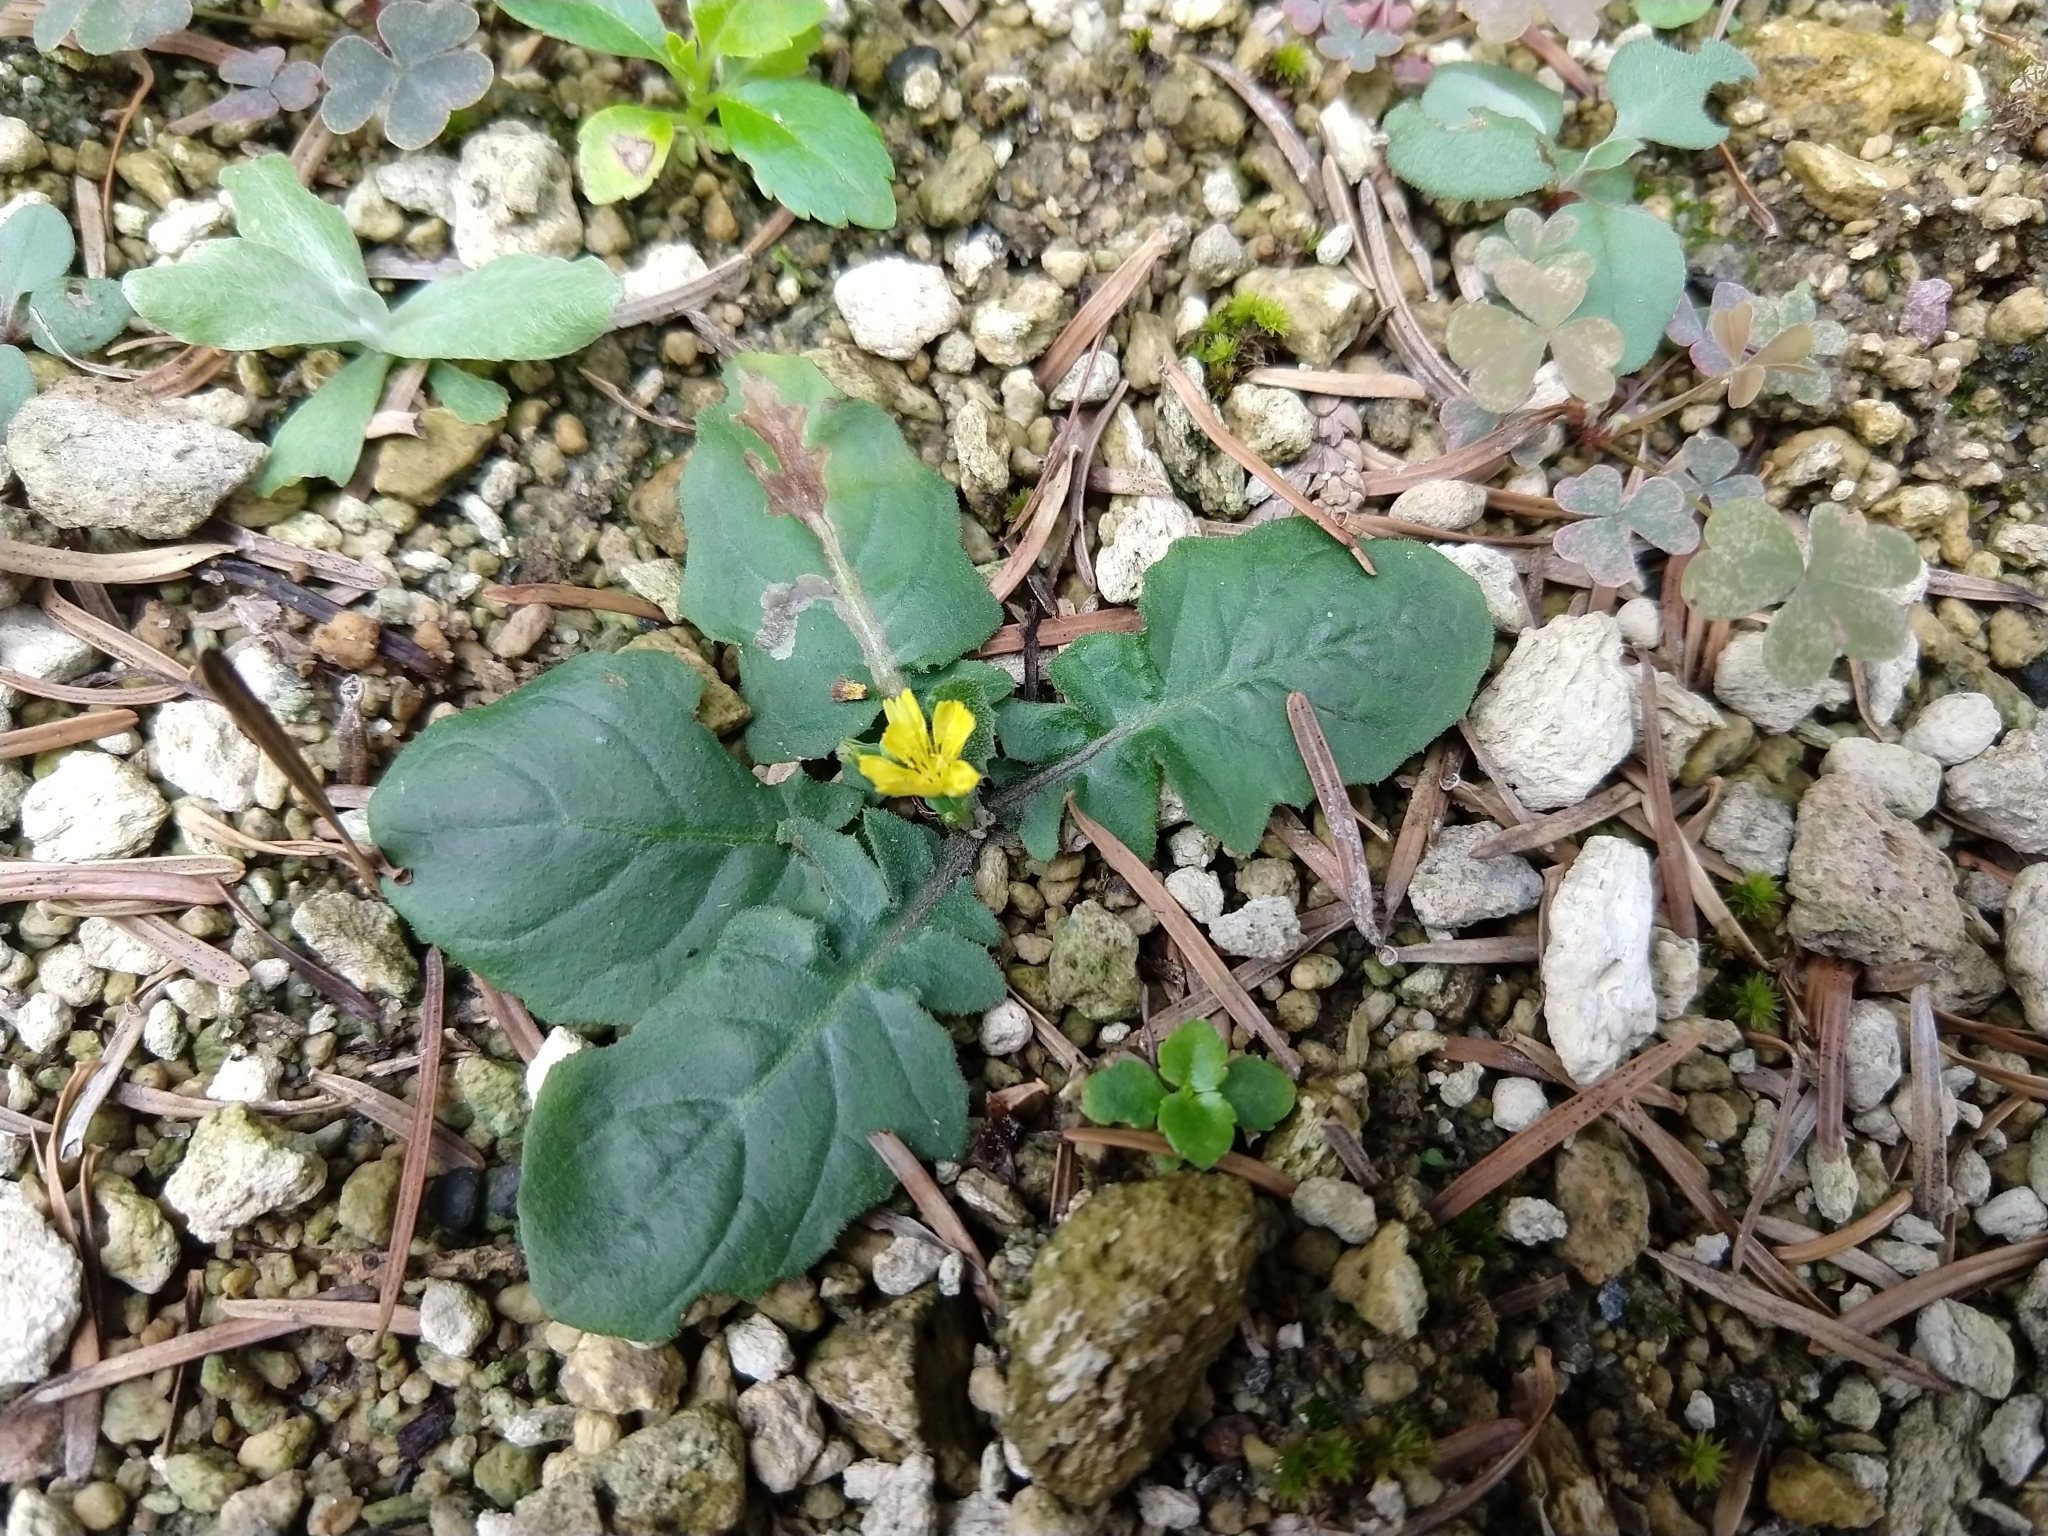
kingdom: Plantae
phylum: Tracheophyta
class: Magnoliopsida
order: Asterales
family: Asteraceae
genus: Youngia
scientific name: Youngia japonica
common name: Oriental false hawksbeard
